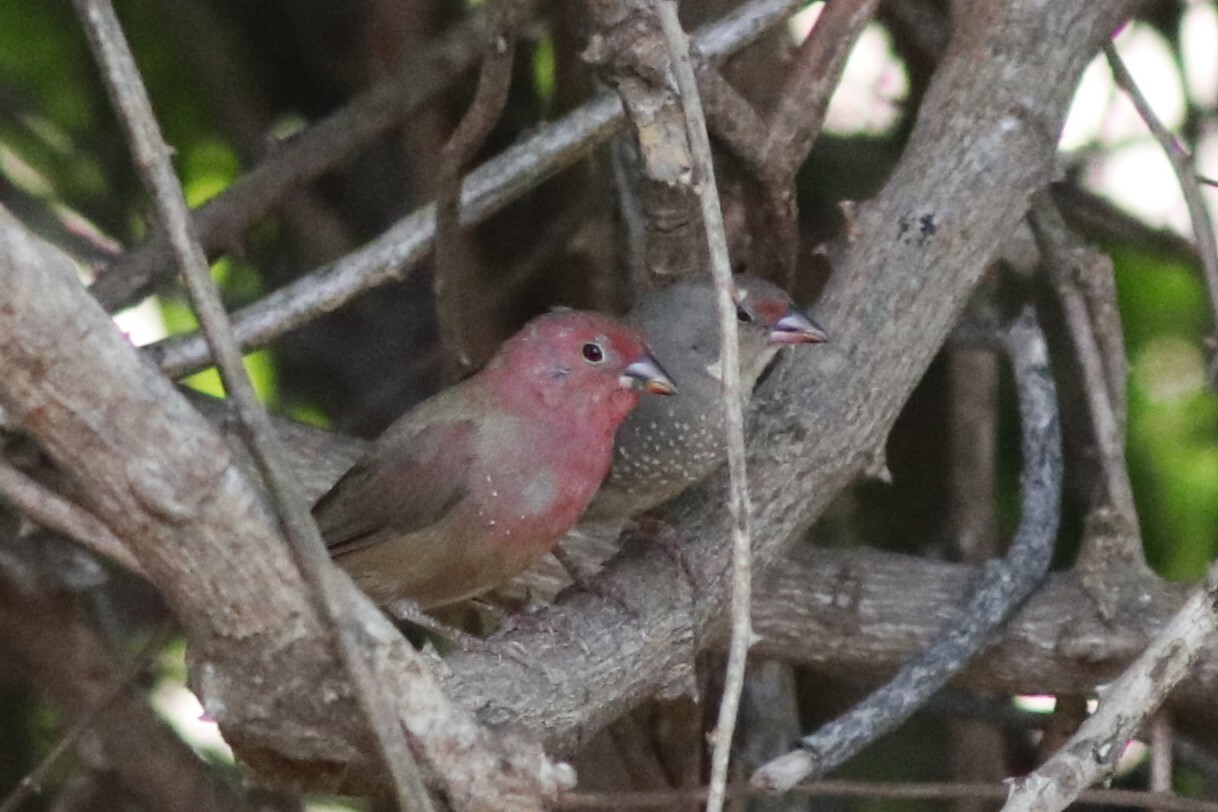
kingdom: Animalia
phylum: Chordata
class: Aves
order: Passeriformes
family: Estrildidae
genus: Lagonosticta
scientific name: Lagonosticta rhodopareia
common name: Jameson's firefinch
